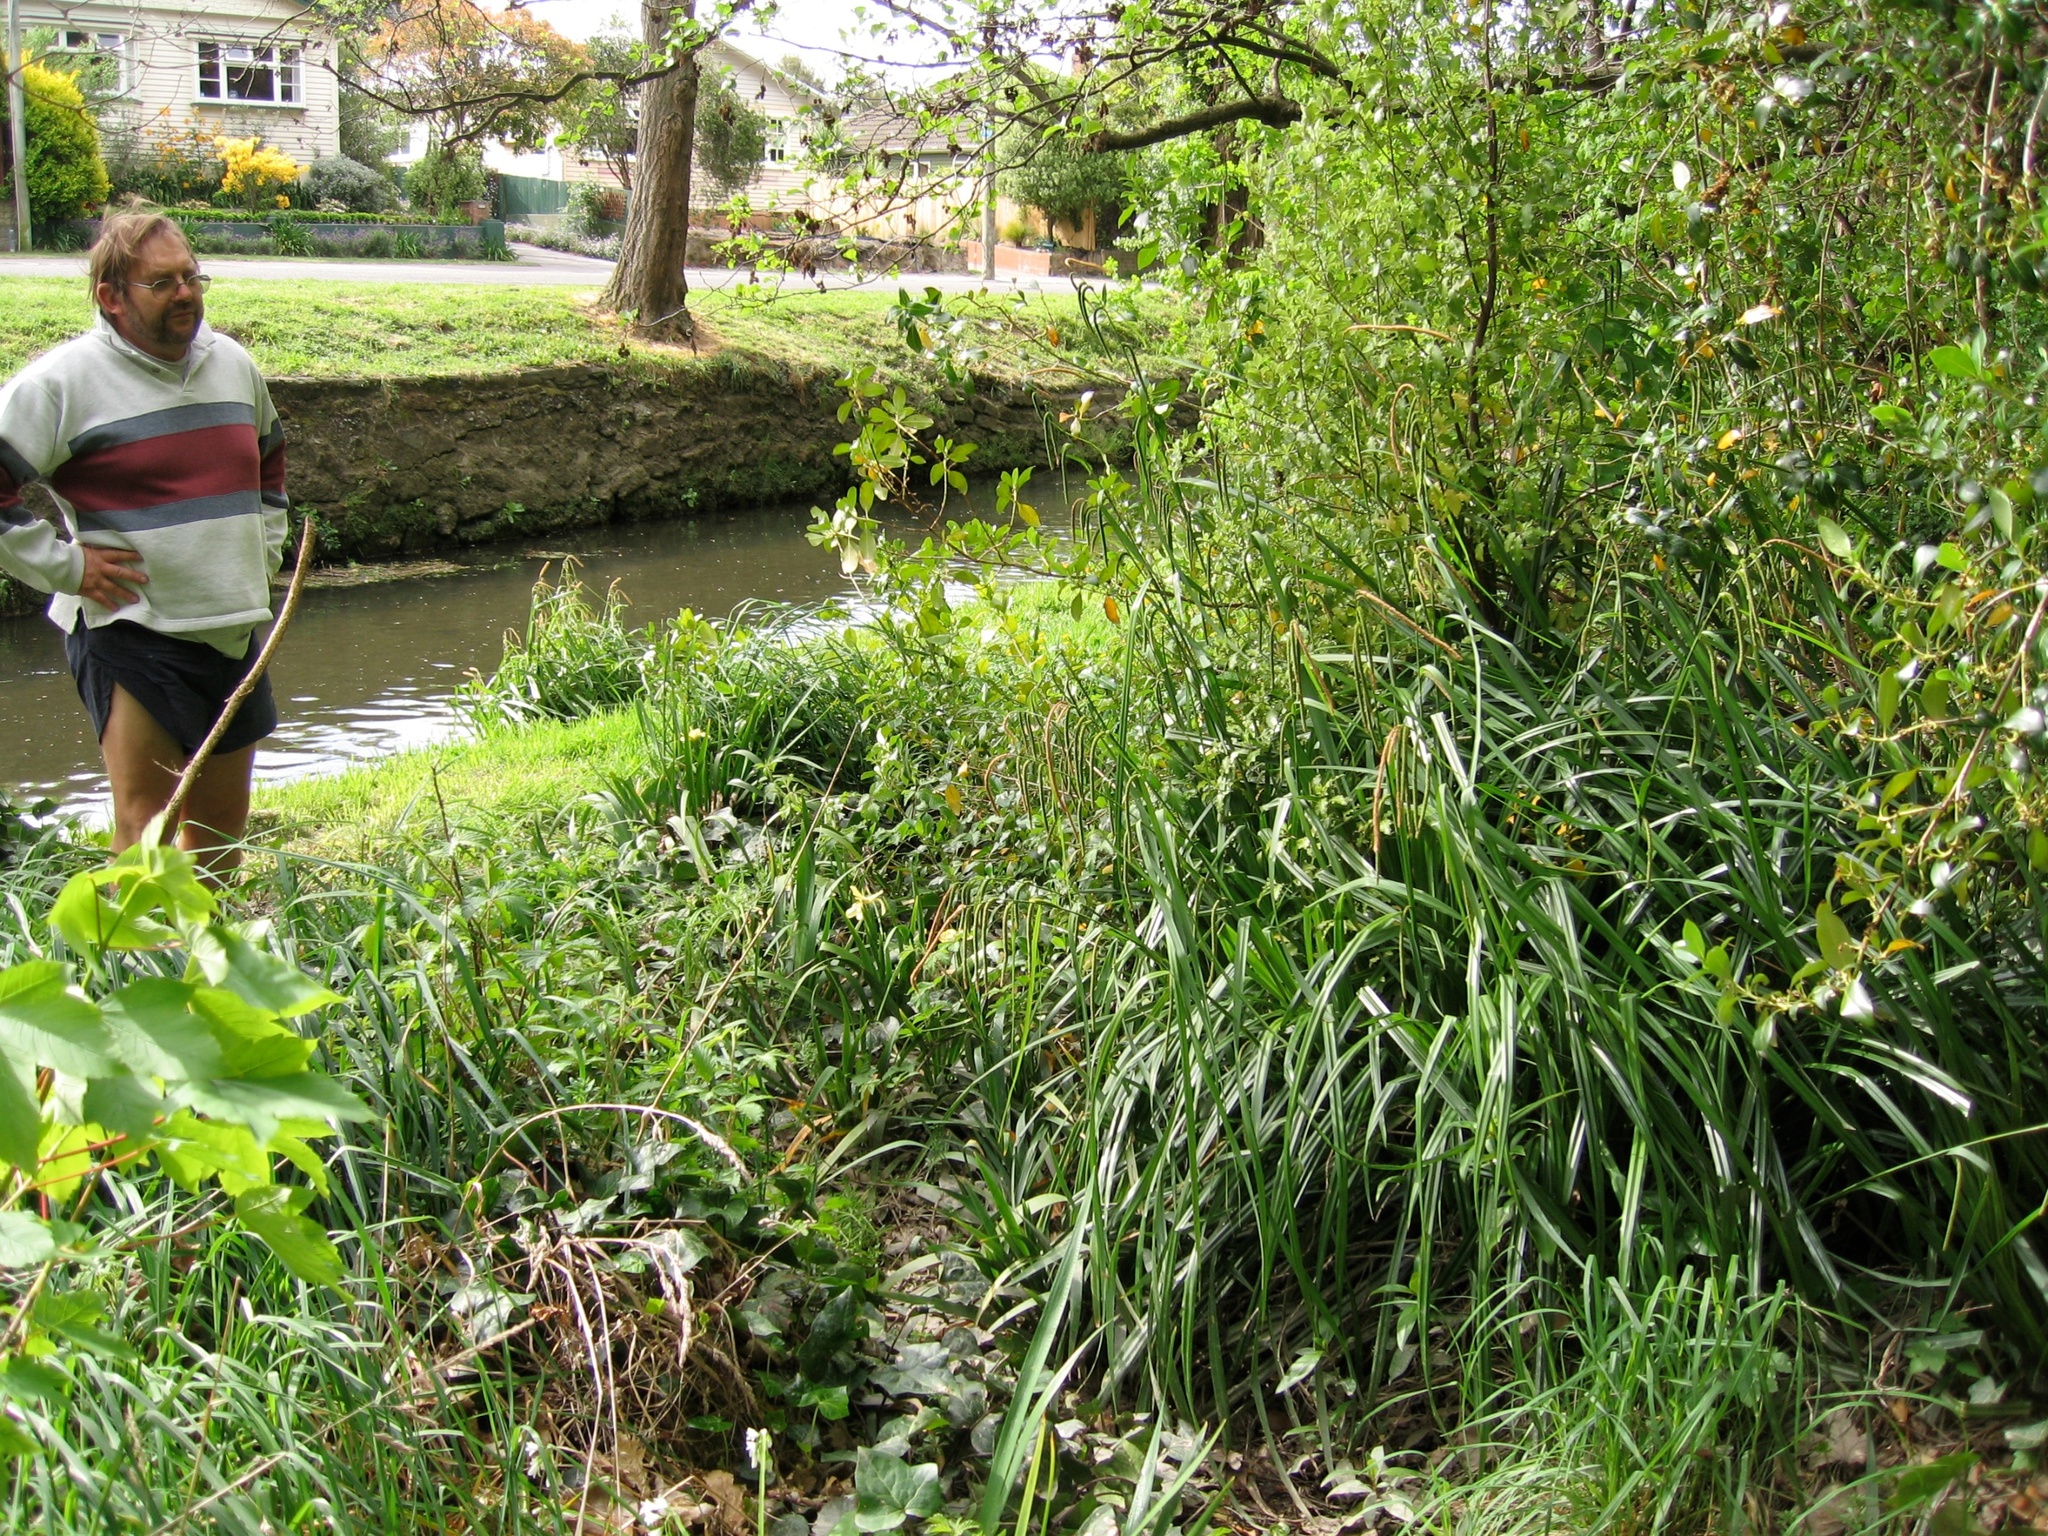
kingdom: Plantae
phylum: Tracheophyta
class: Liliopsida
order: Poales
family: Cyperaceae
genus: Carex
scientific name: Carex pendula
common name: Pendulous sedge
